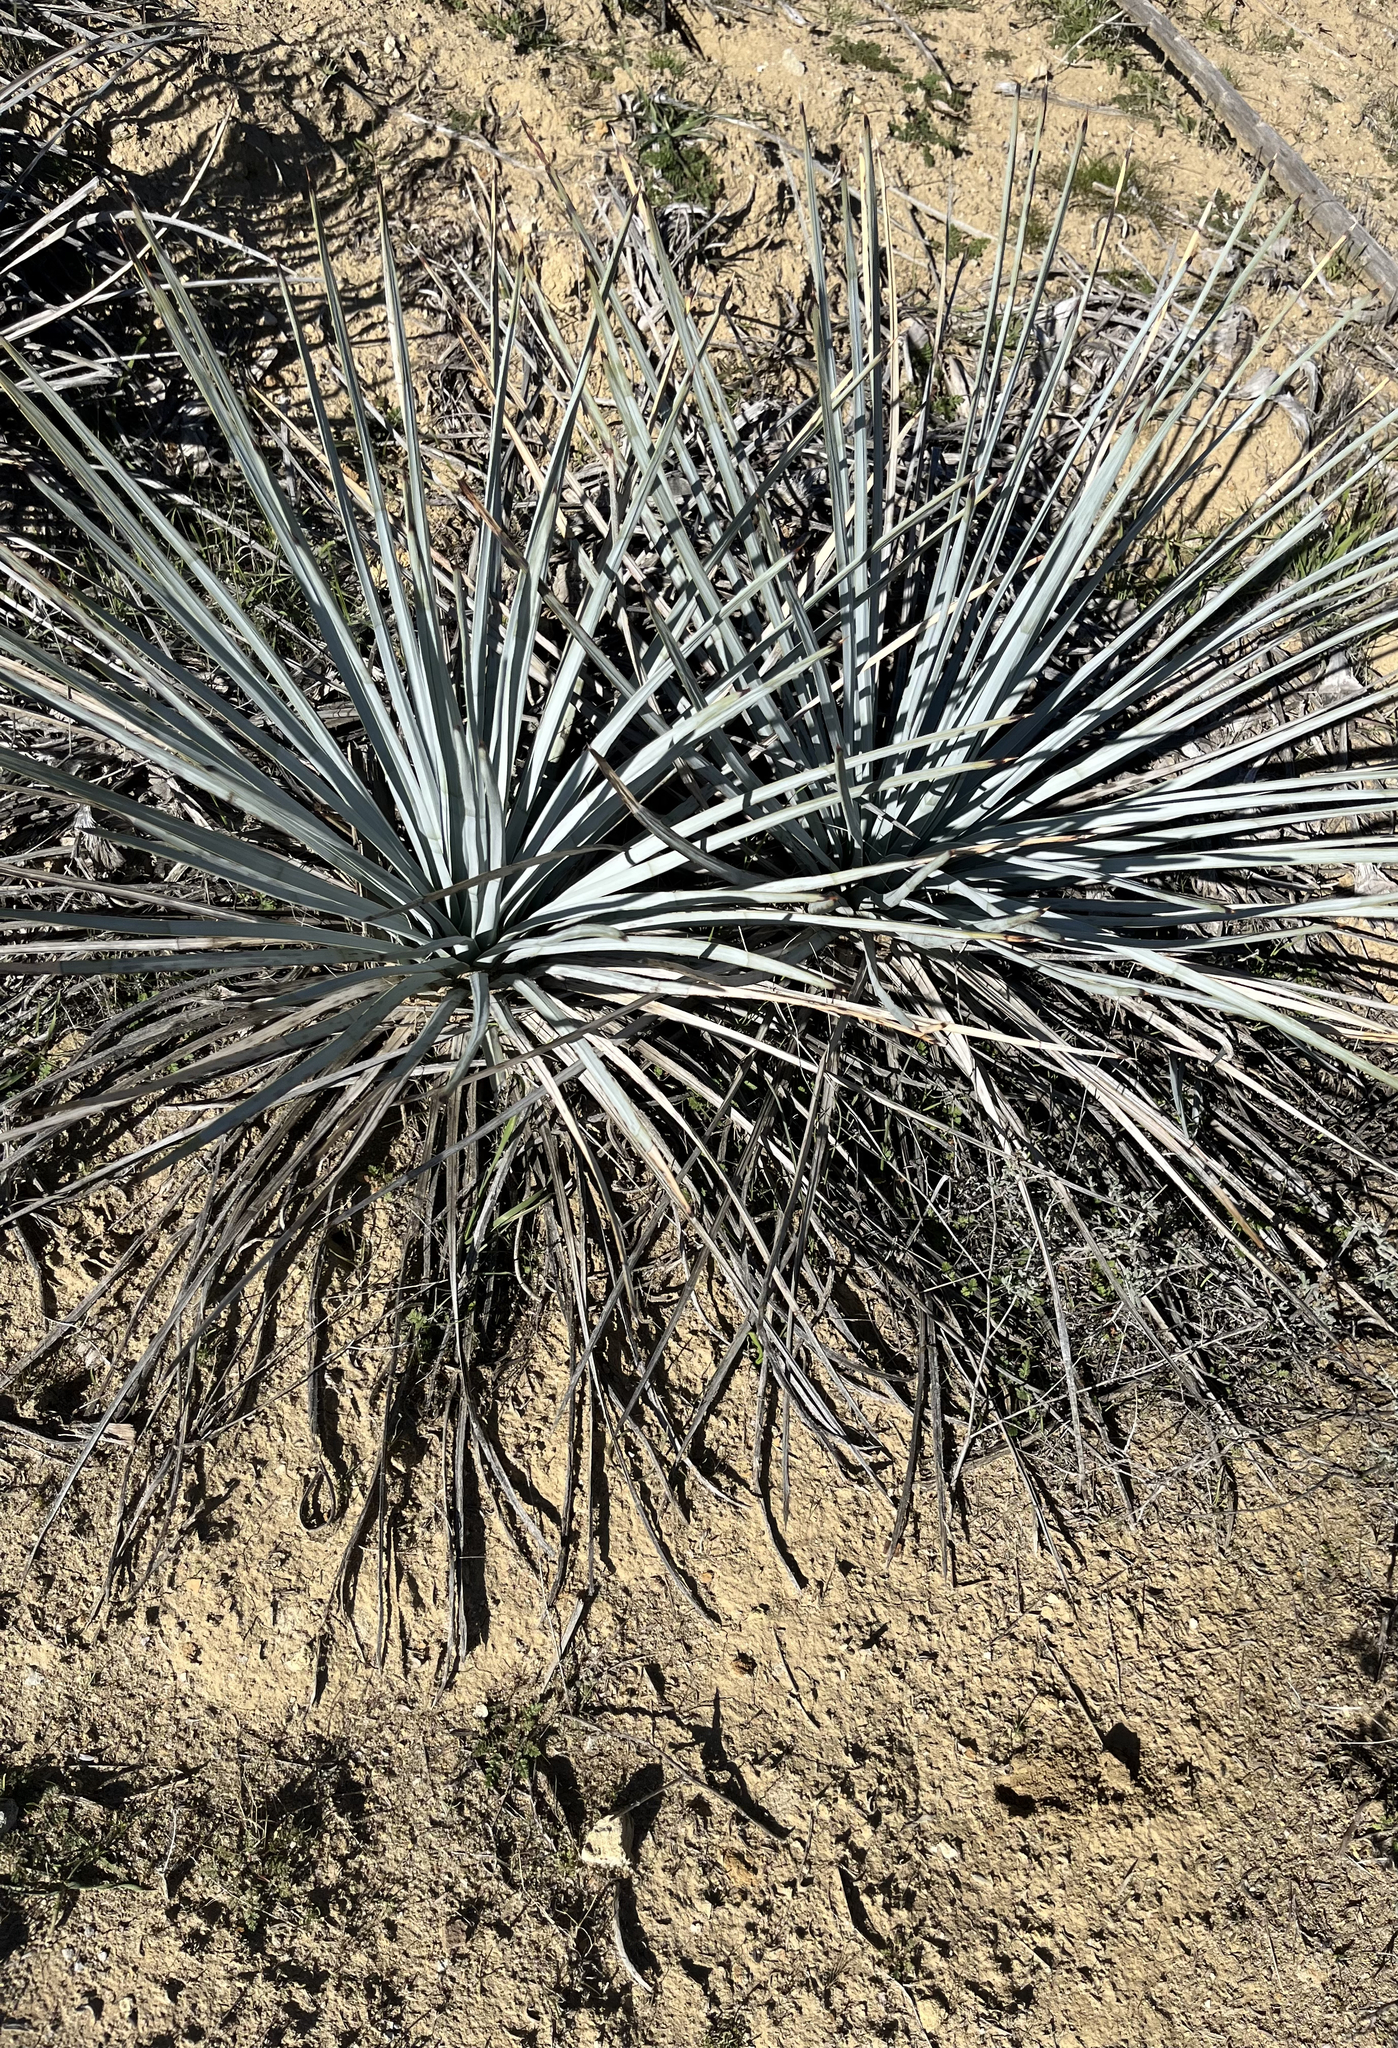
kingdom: Plantae
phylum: Tracheophyta
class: Liliopsida
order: Asparagales
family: Asparagaceae
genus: Hesperoyucca
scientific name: Hesperoyucca whipplei
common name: Our lord's-candle
